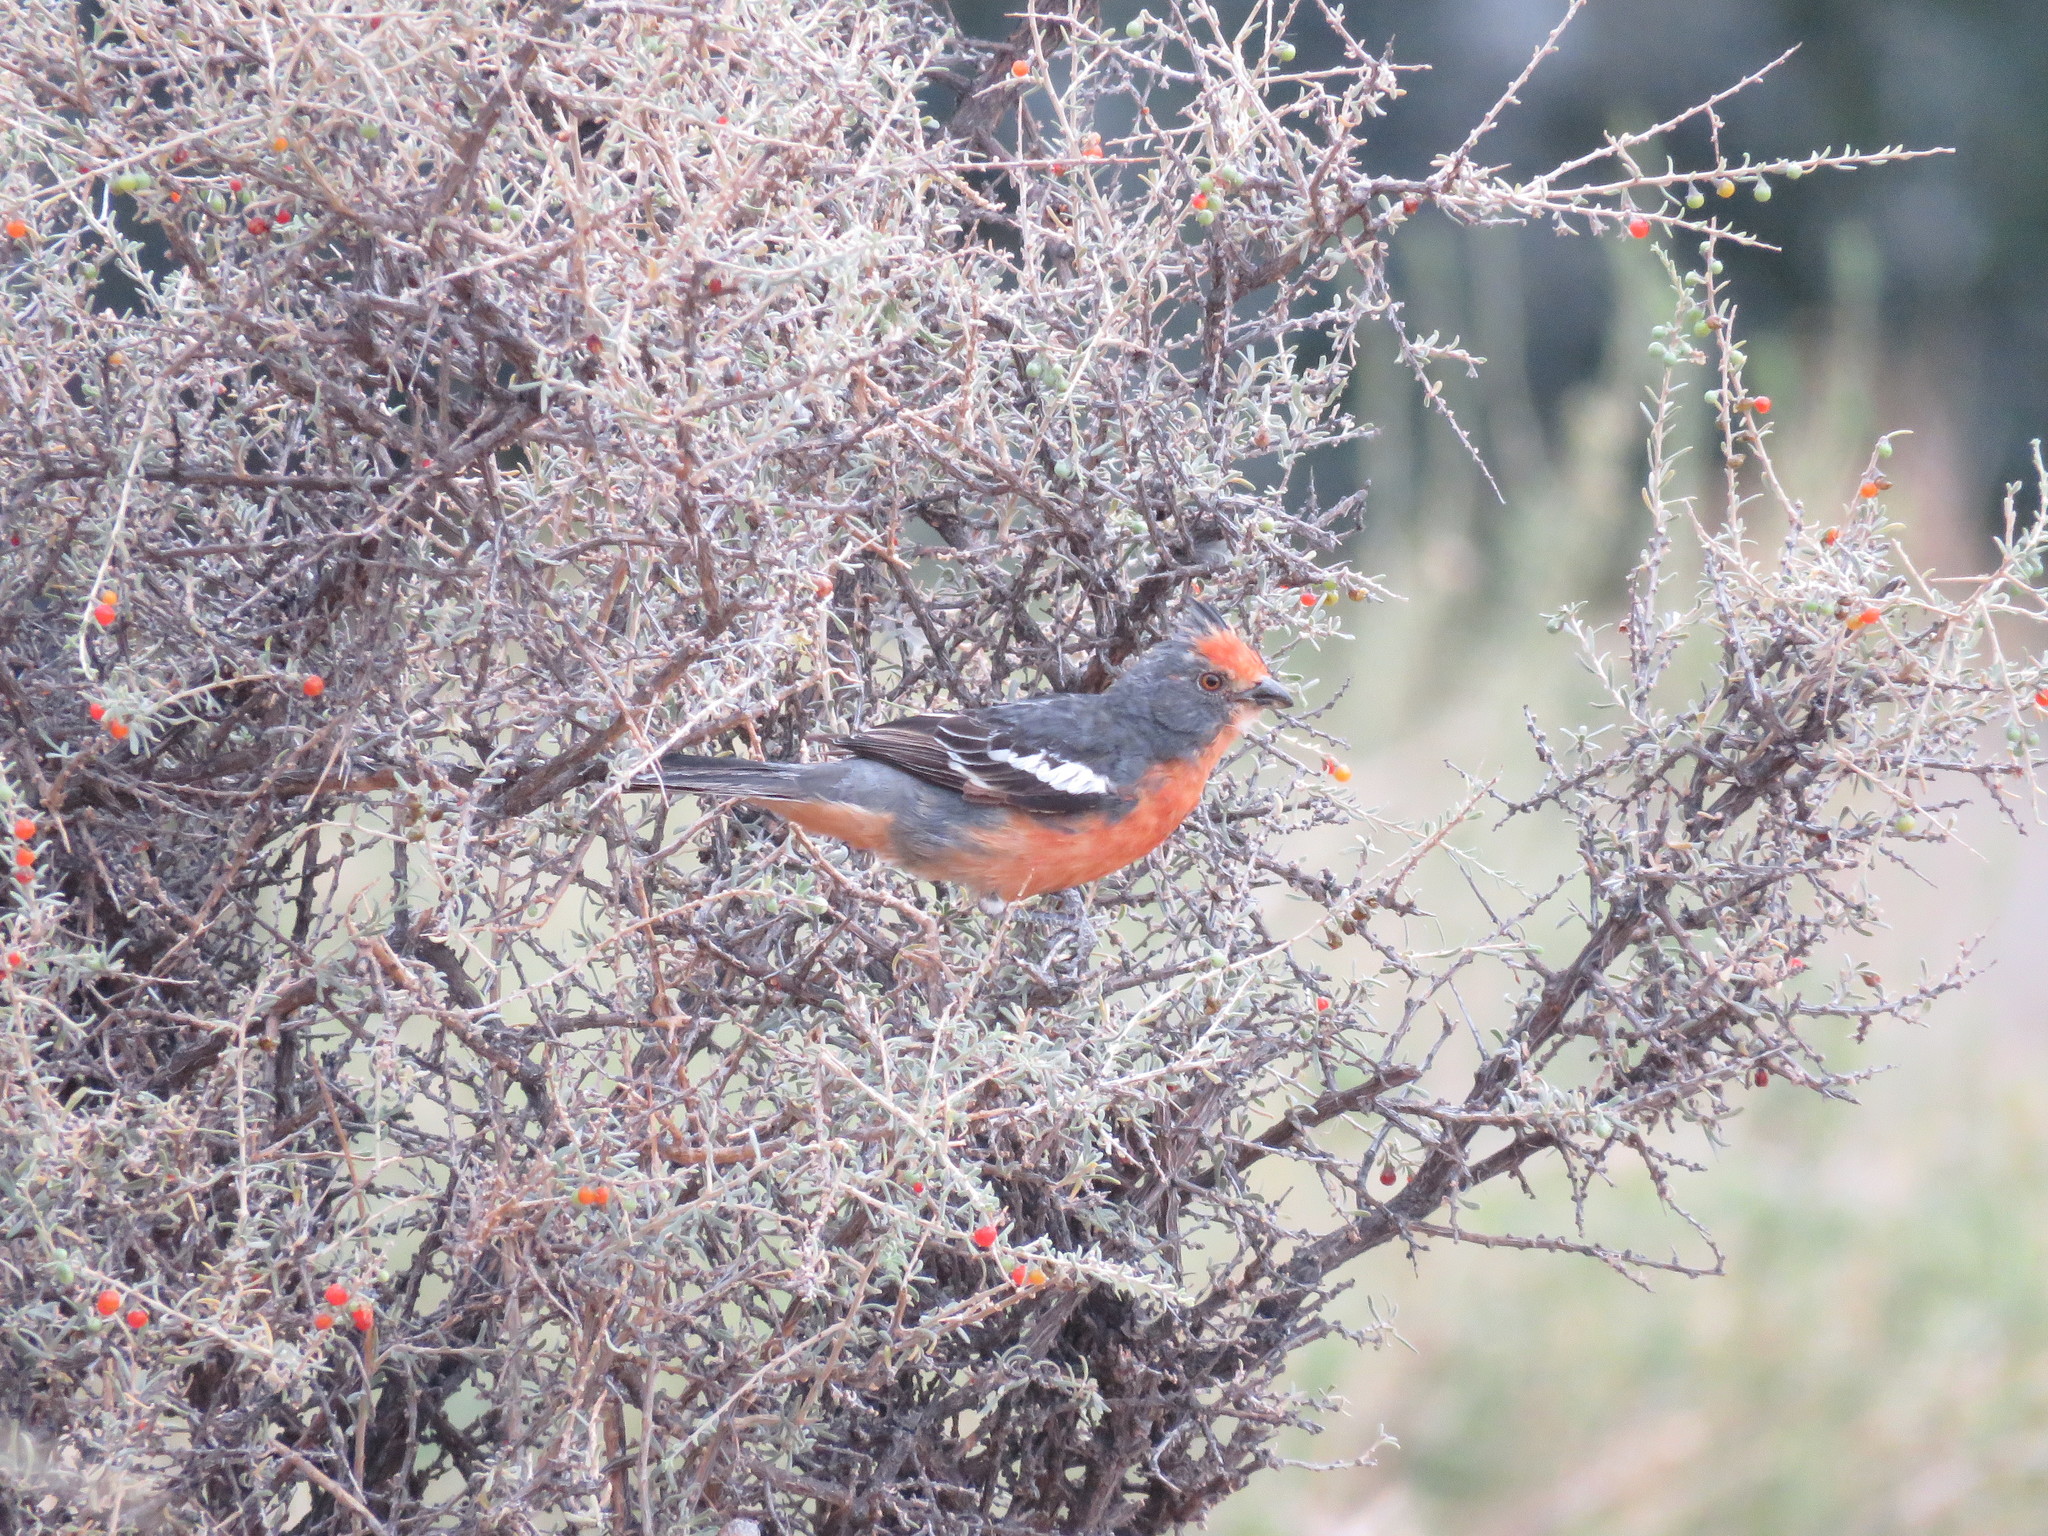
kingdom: Animalia
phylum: Chordata
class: Aves
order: Passeriformes
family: Cotingidae
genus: Phytotoma
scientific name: Phytotoma rutila
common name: White-tipped plantcutter
